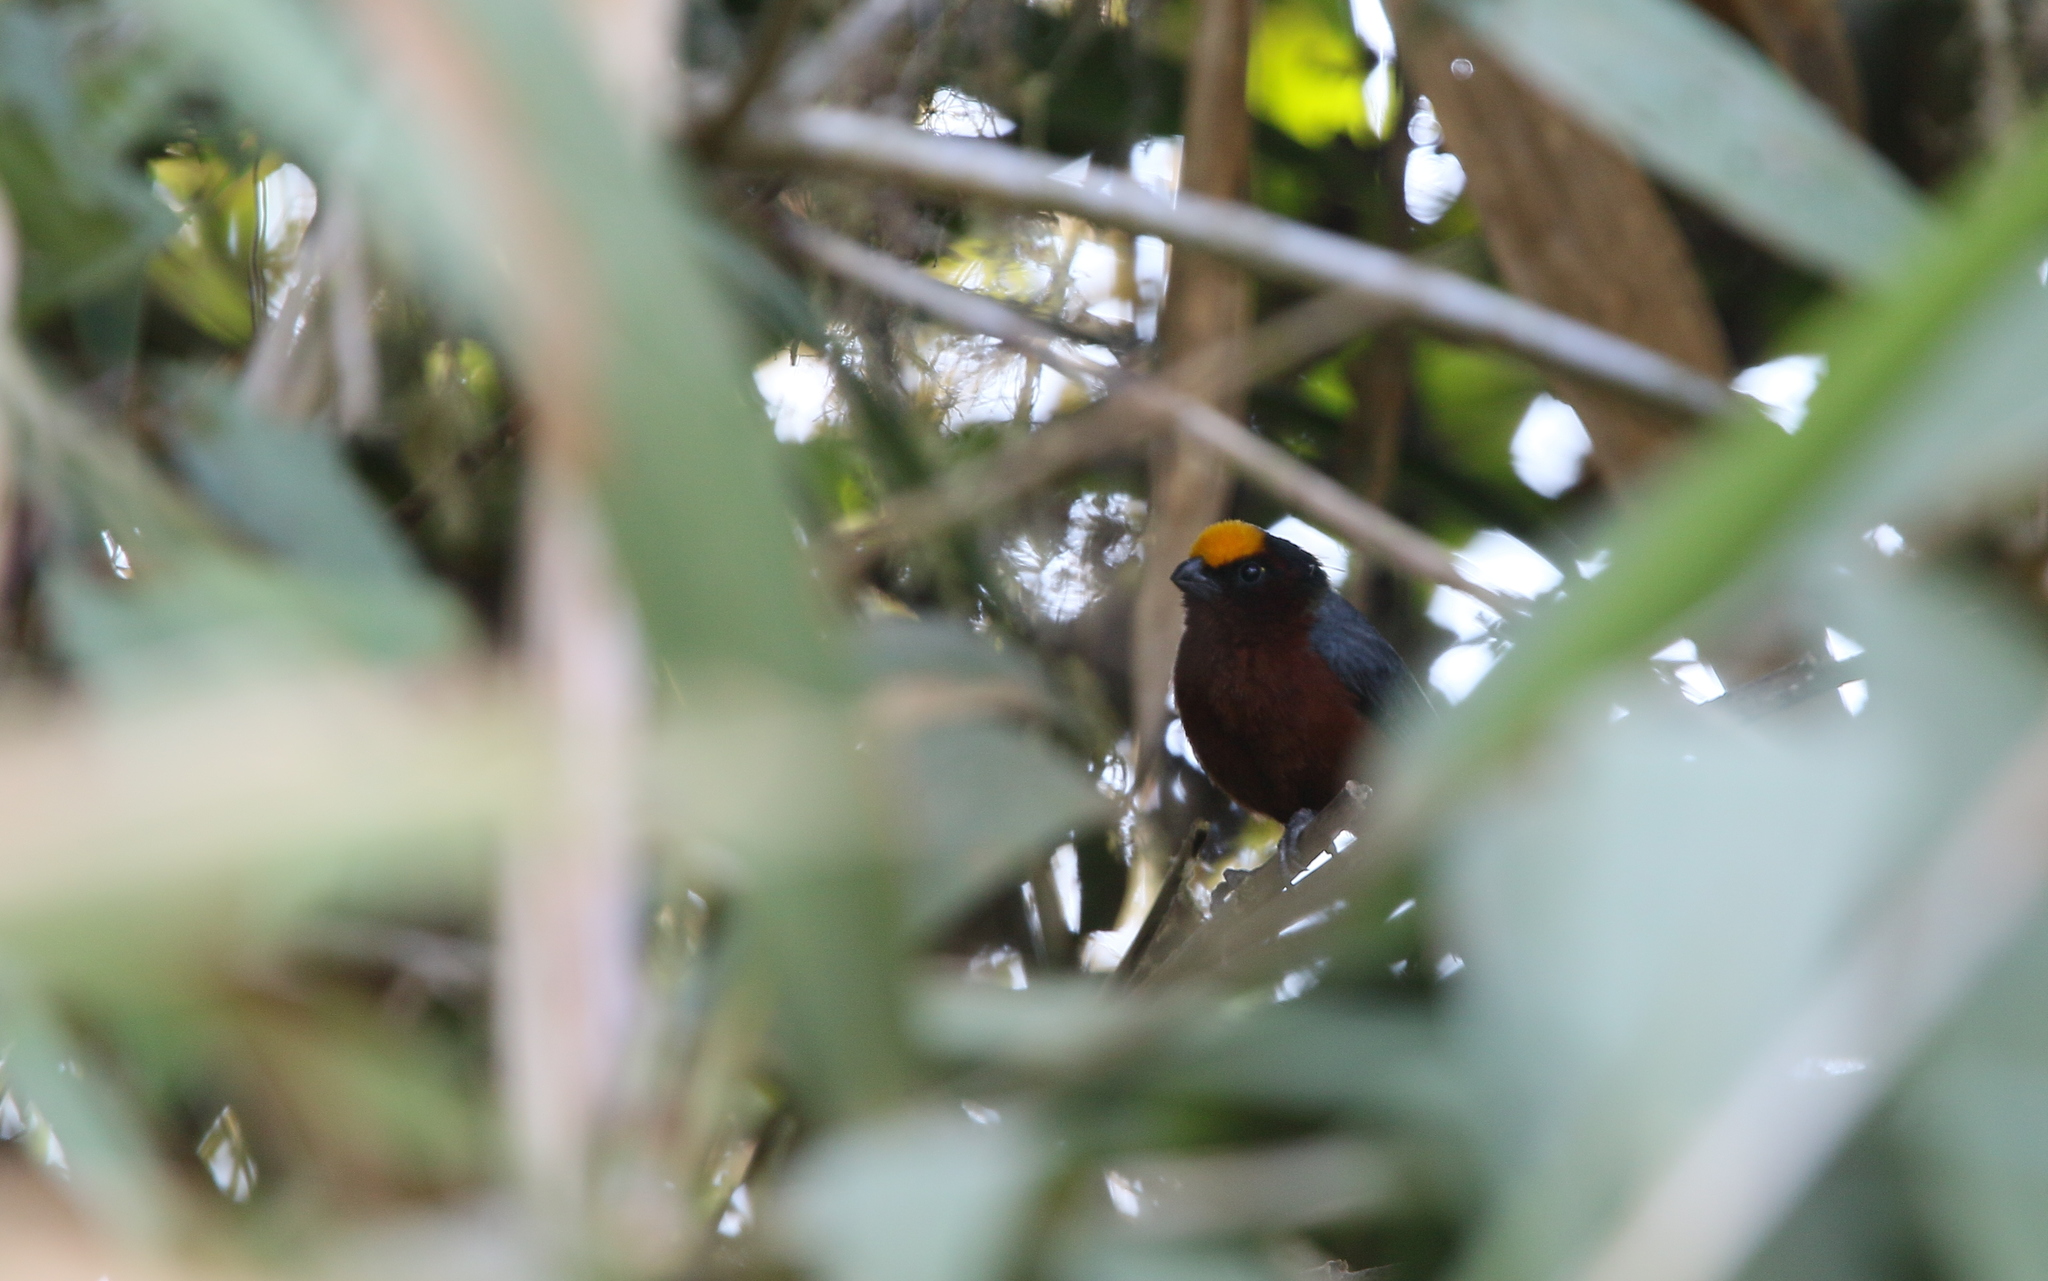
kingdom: Animalia
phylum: Chordata
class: Aves
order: Passeriformes
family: Thraupidae
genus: Catamblyrhynchus
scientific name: Catamblyrhynchus diadema
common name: Plushcap
